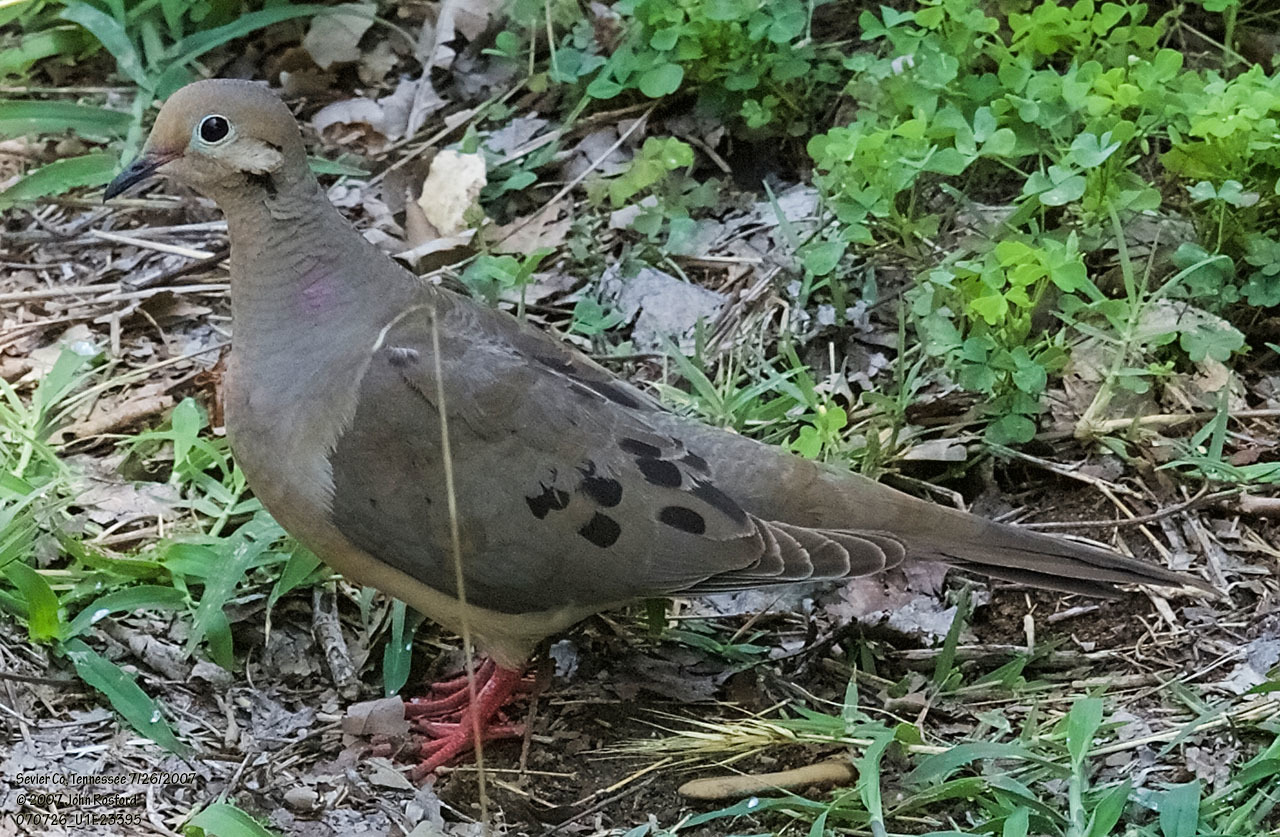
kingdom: Animalia
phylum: Chordata
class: Aves
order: Columbiformes
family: Columbidae
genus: Zenaida
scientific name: Zenaida macroura
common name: Mourning dove
